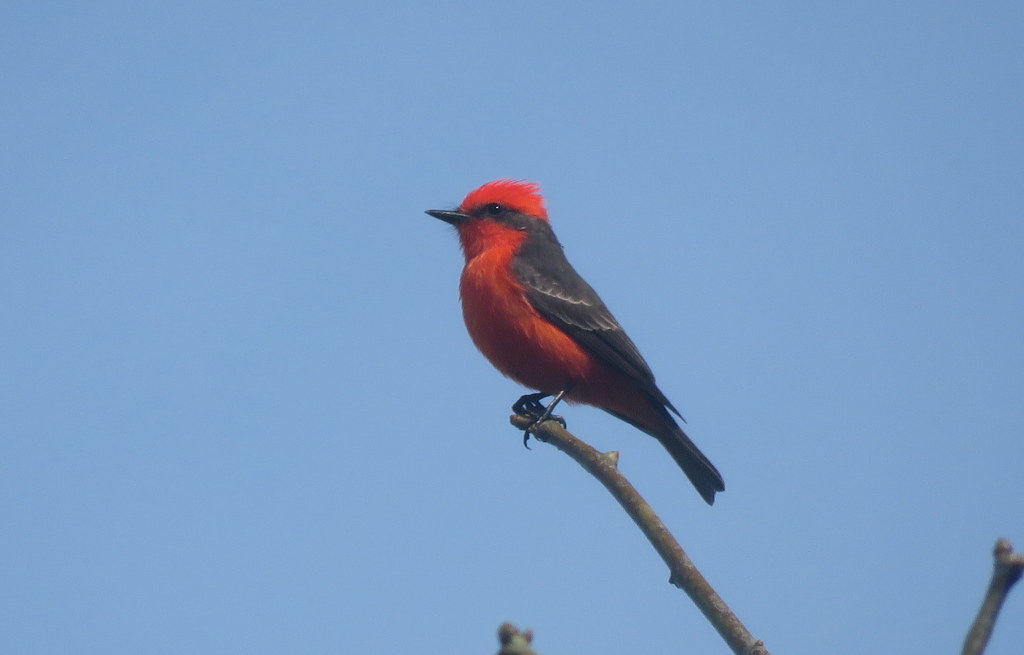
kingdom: Animalia
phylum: Chordata
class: Aves
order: Passeriformes
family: Tyrannidae
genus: Pyrocephalus
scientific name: Pyrocephalus rubinus
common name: Vermilion flycatcher
